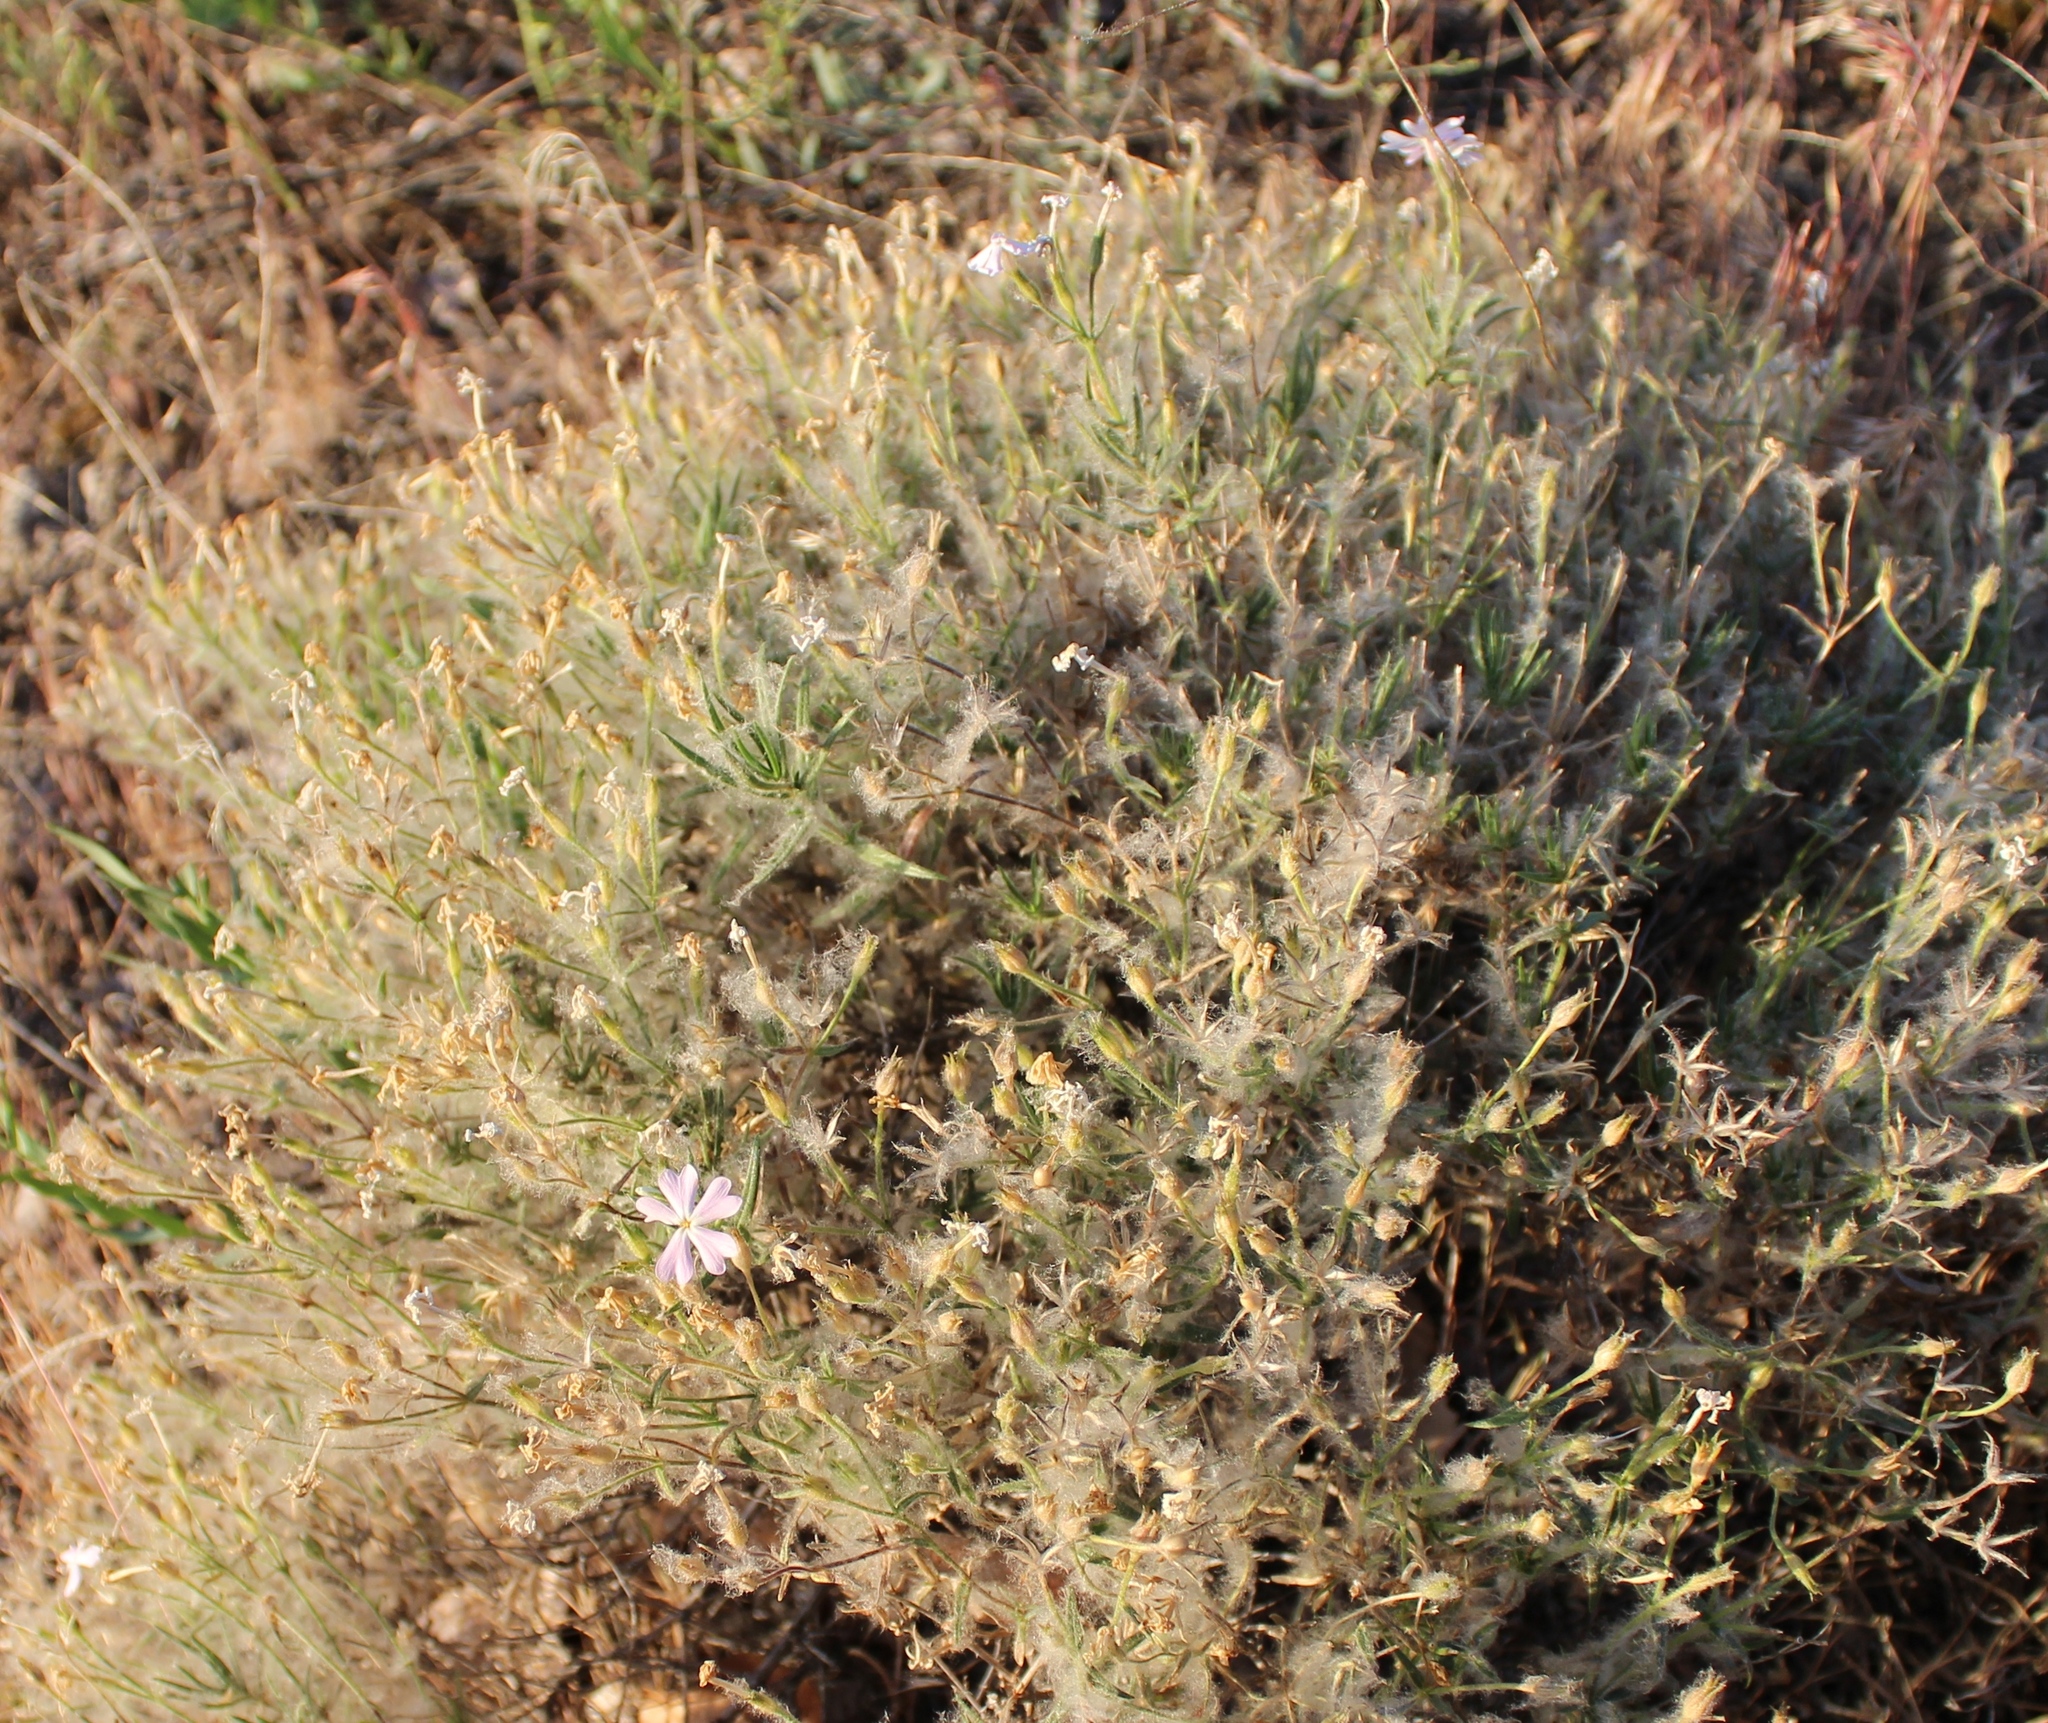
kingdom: Plantae
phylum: Tracheophyta
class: Magnoliopsida
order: Ericales
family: Polemoniaceae
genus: Phlox
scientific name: Phlox speciosa
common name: Bush phlox
